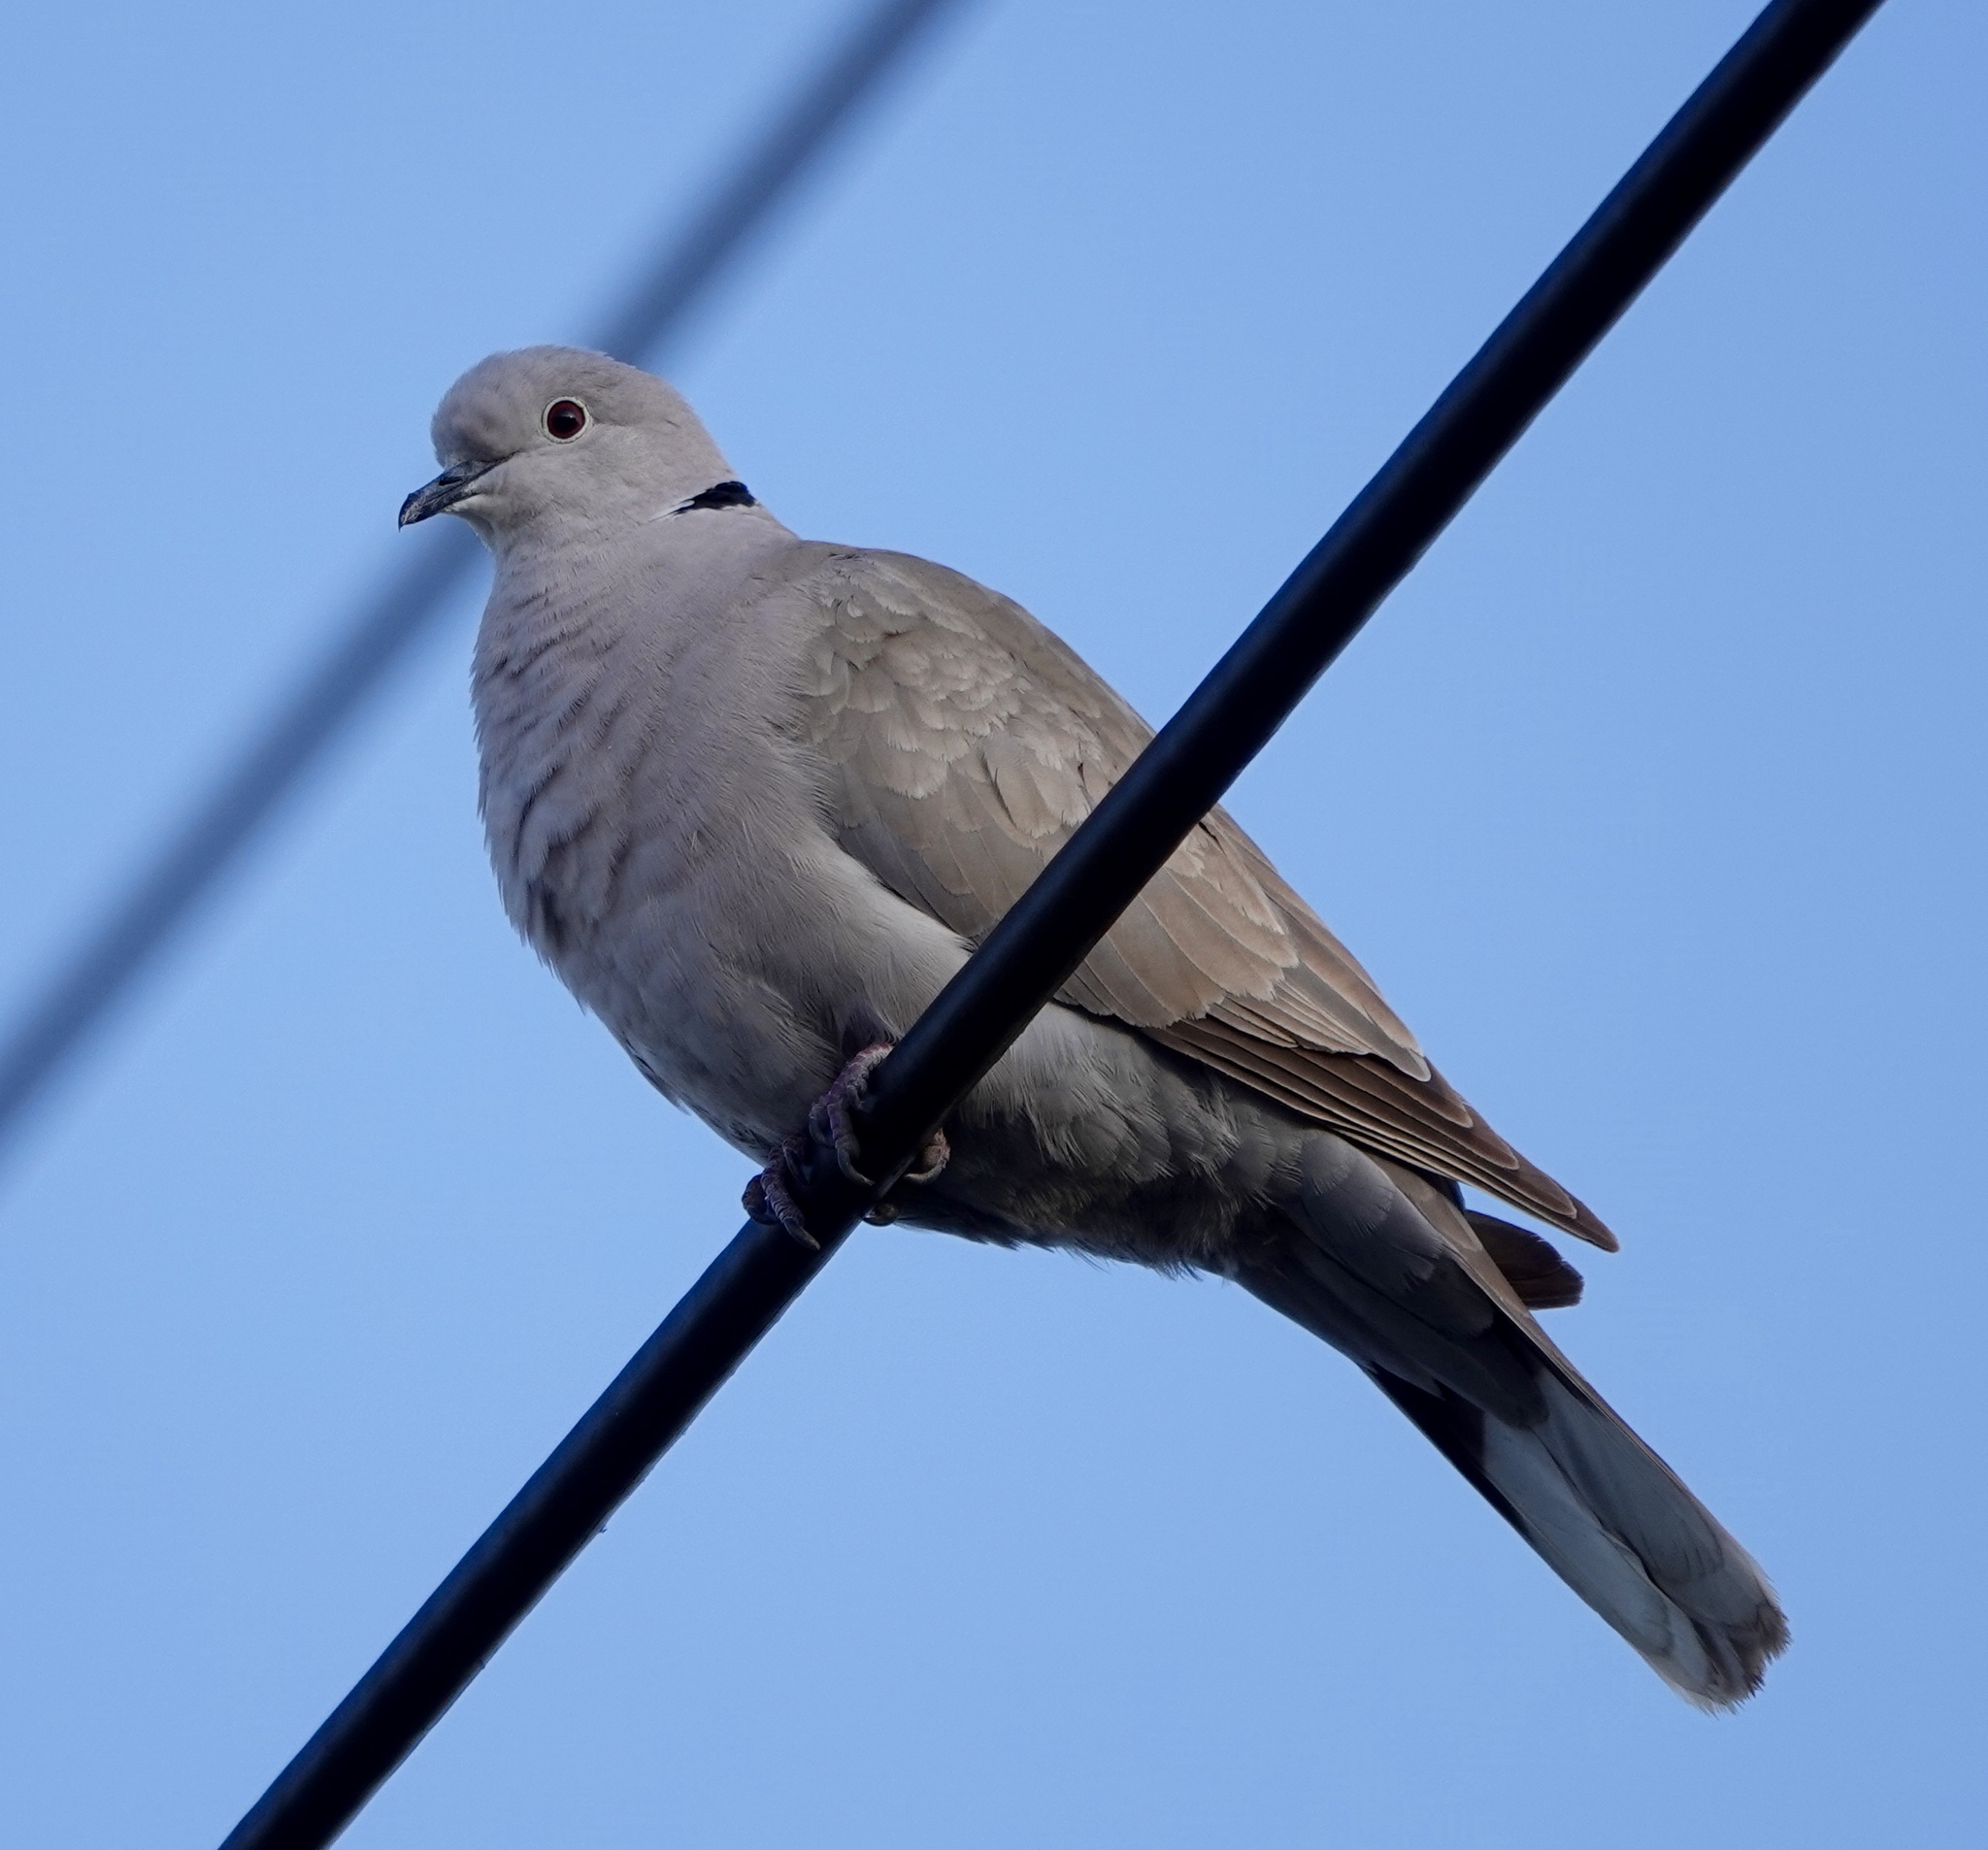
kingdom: Animalia
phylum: Chordata
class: Aves
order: Columbiformes
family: Columbidae
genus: Streptopelia
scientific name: Streptopelia decaocto
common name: Eurasian collared dove
